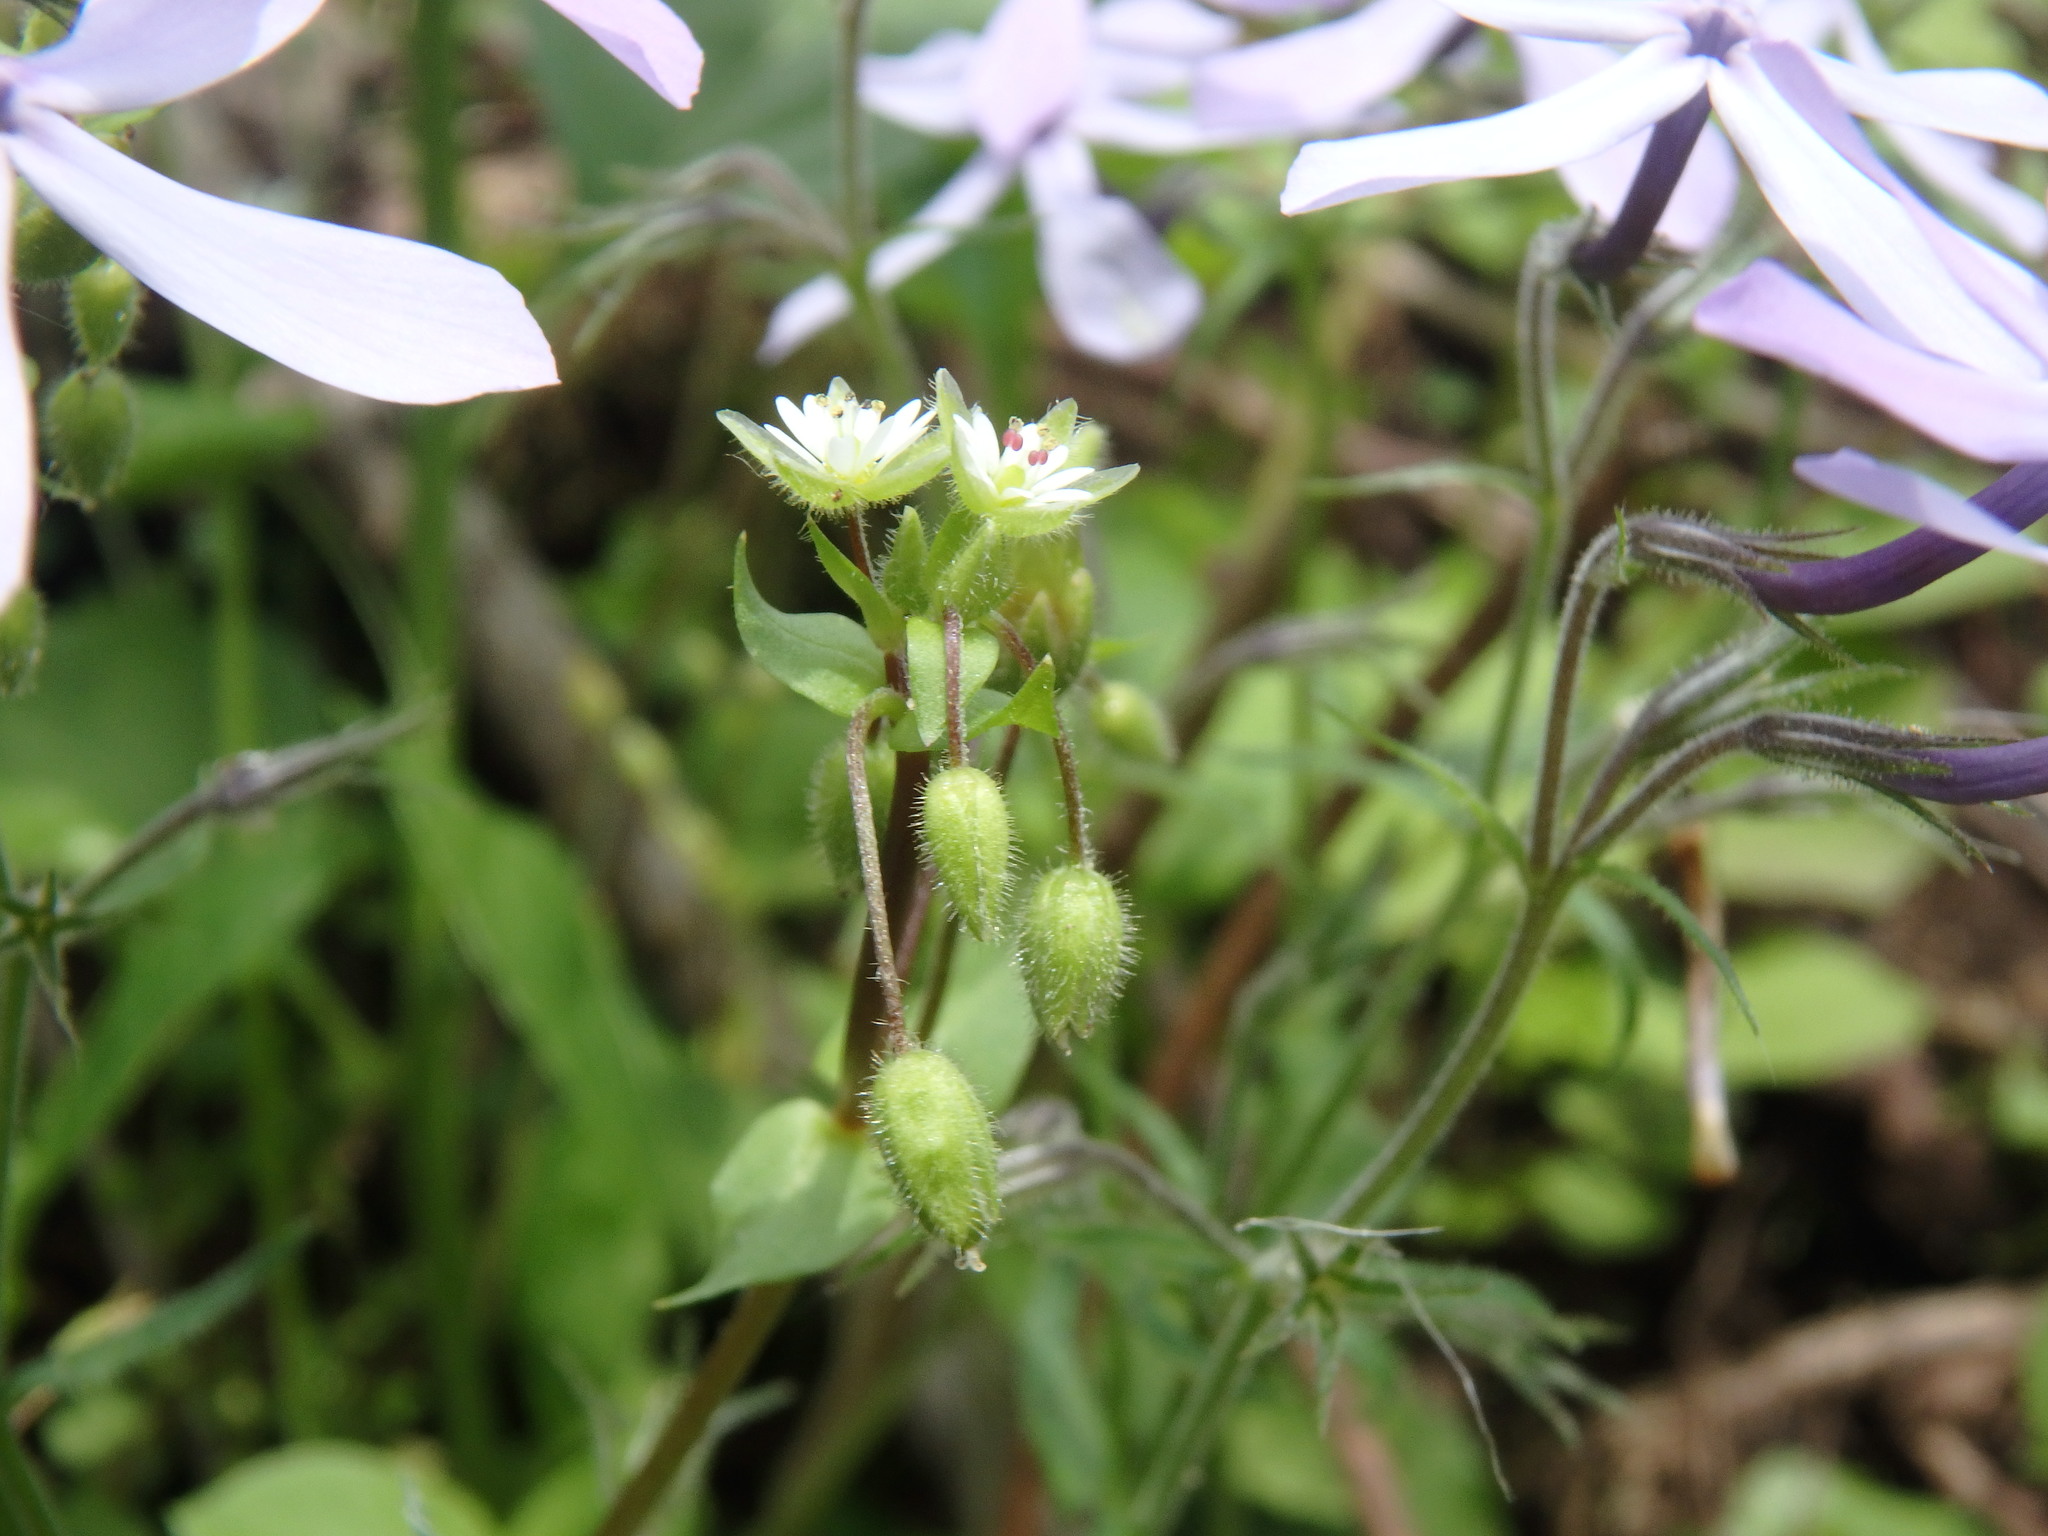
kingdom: Plantae
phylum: Tracheophyta
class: Magnoliopsida
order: Ericales
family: Polemoniaceae
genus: Phlox
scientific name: Phlox divaricata
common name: Blue phlox
